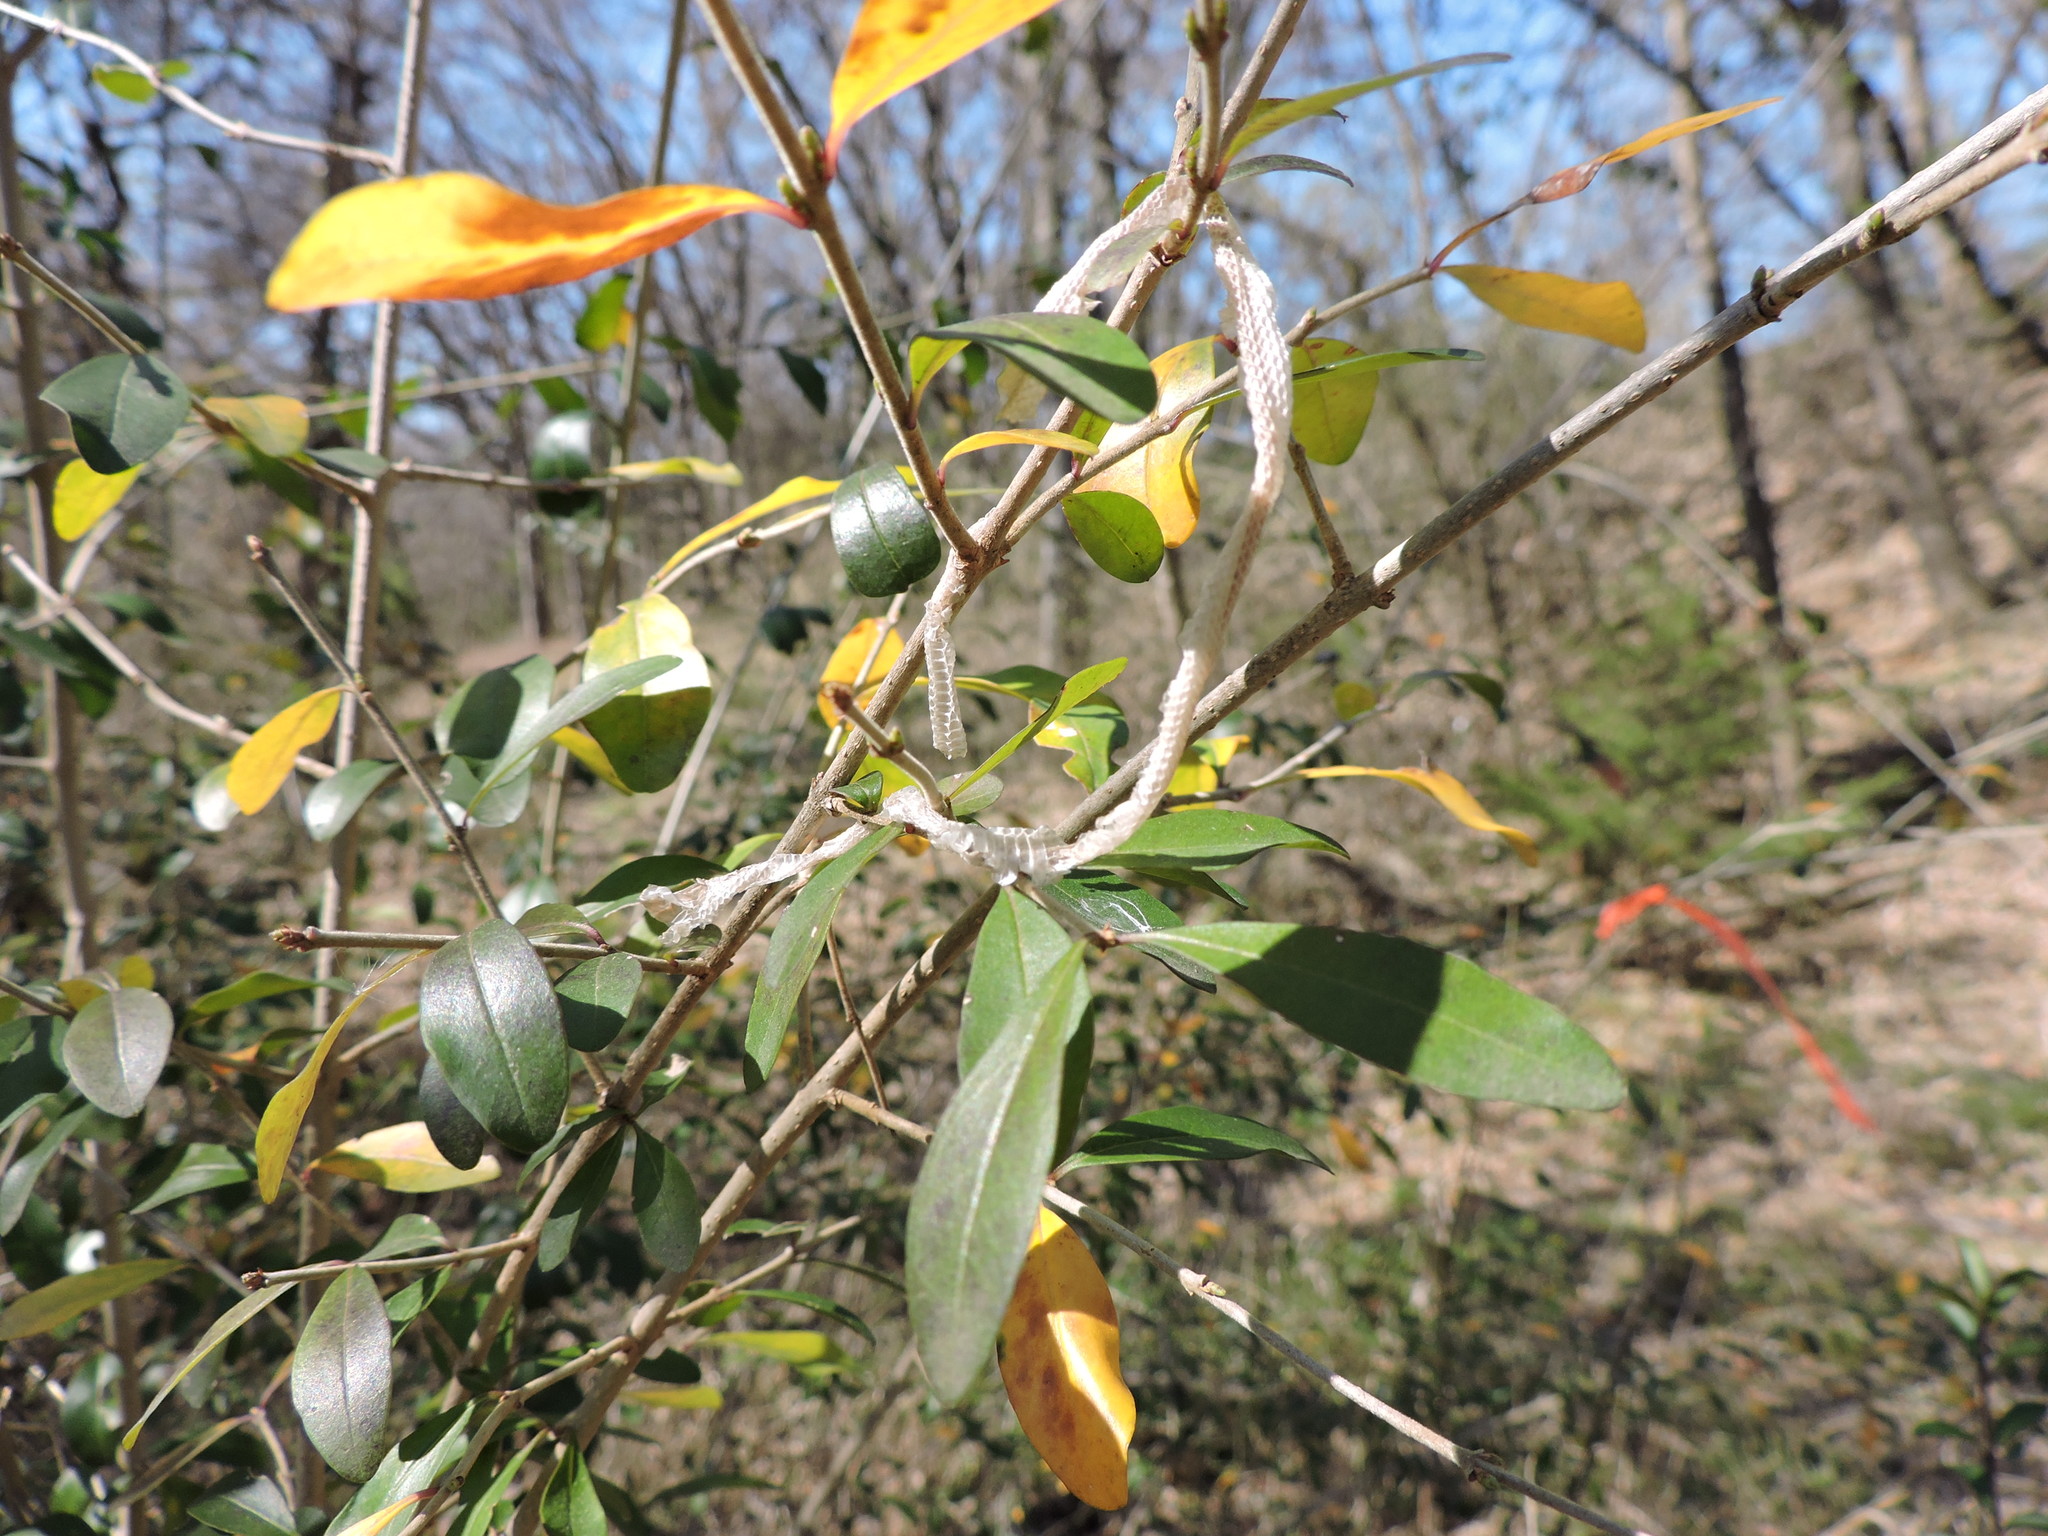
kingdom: Animalia
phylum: Chordata
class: Squamata
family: Colubridae
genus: Opheodrys
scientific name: Opheodrys aestivus
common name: Rough greensnake
